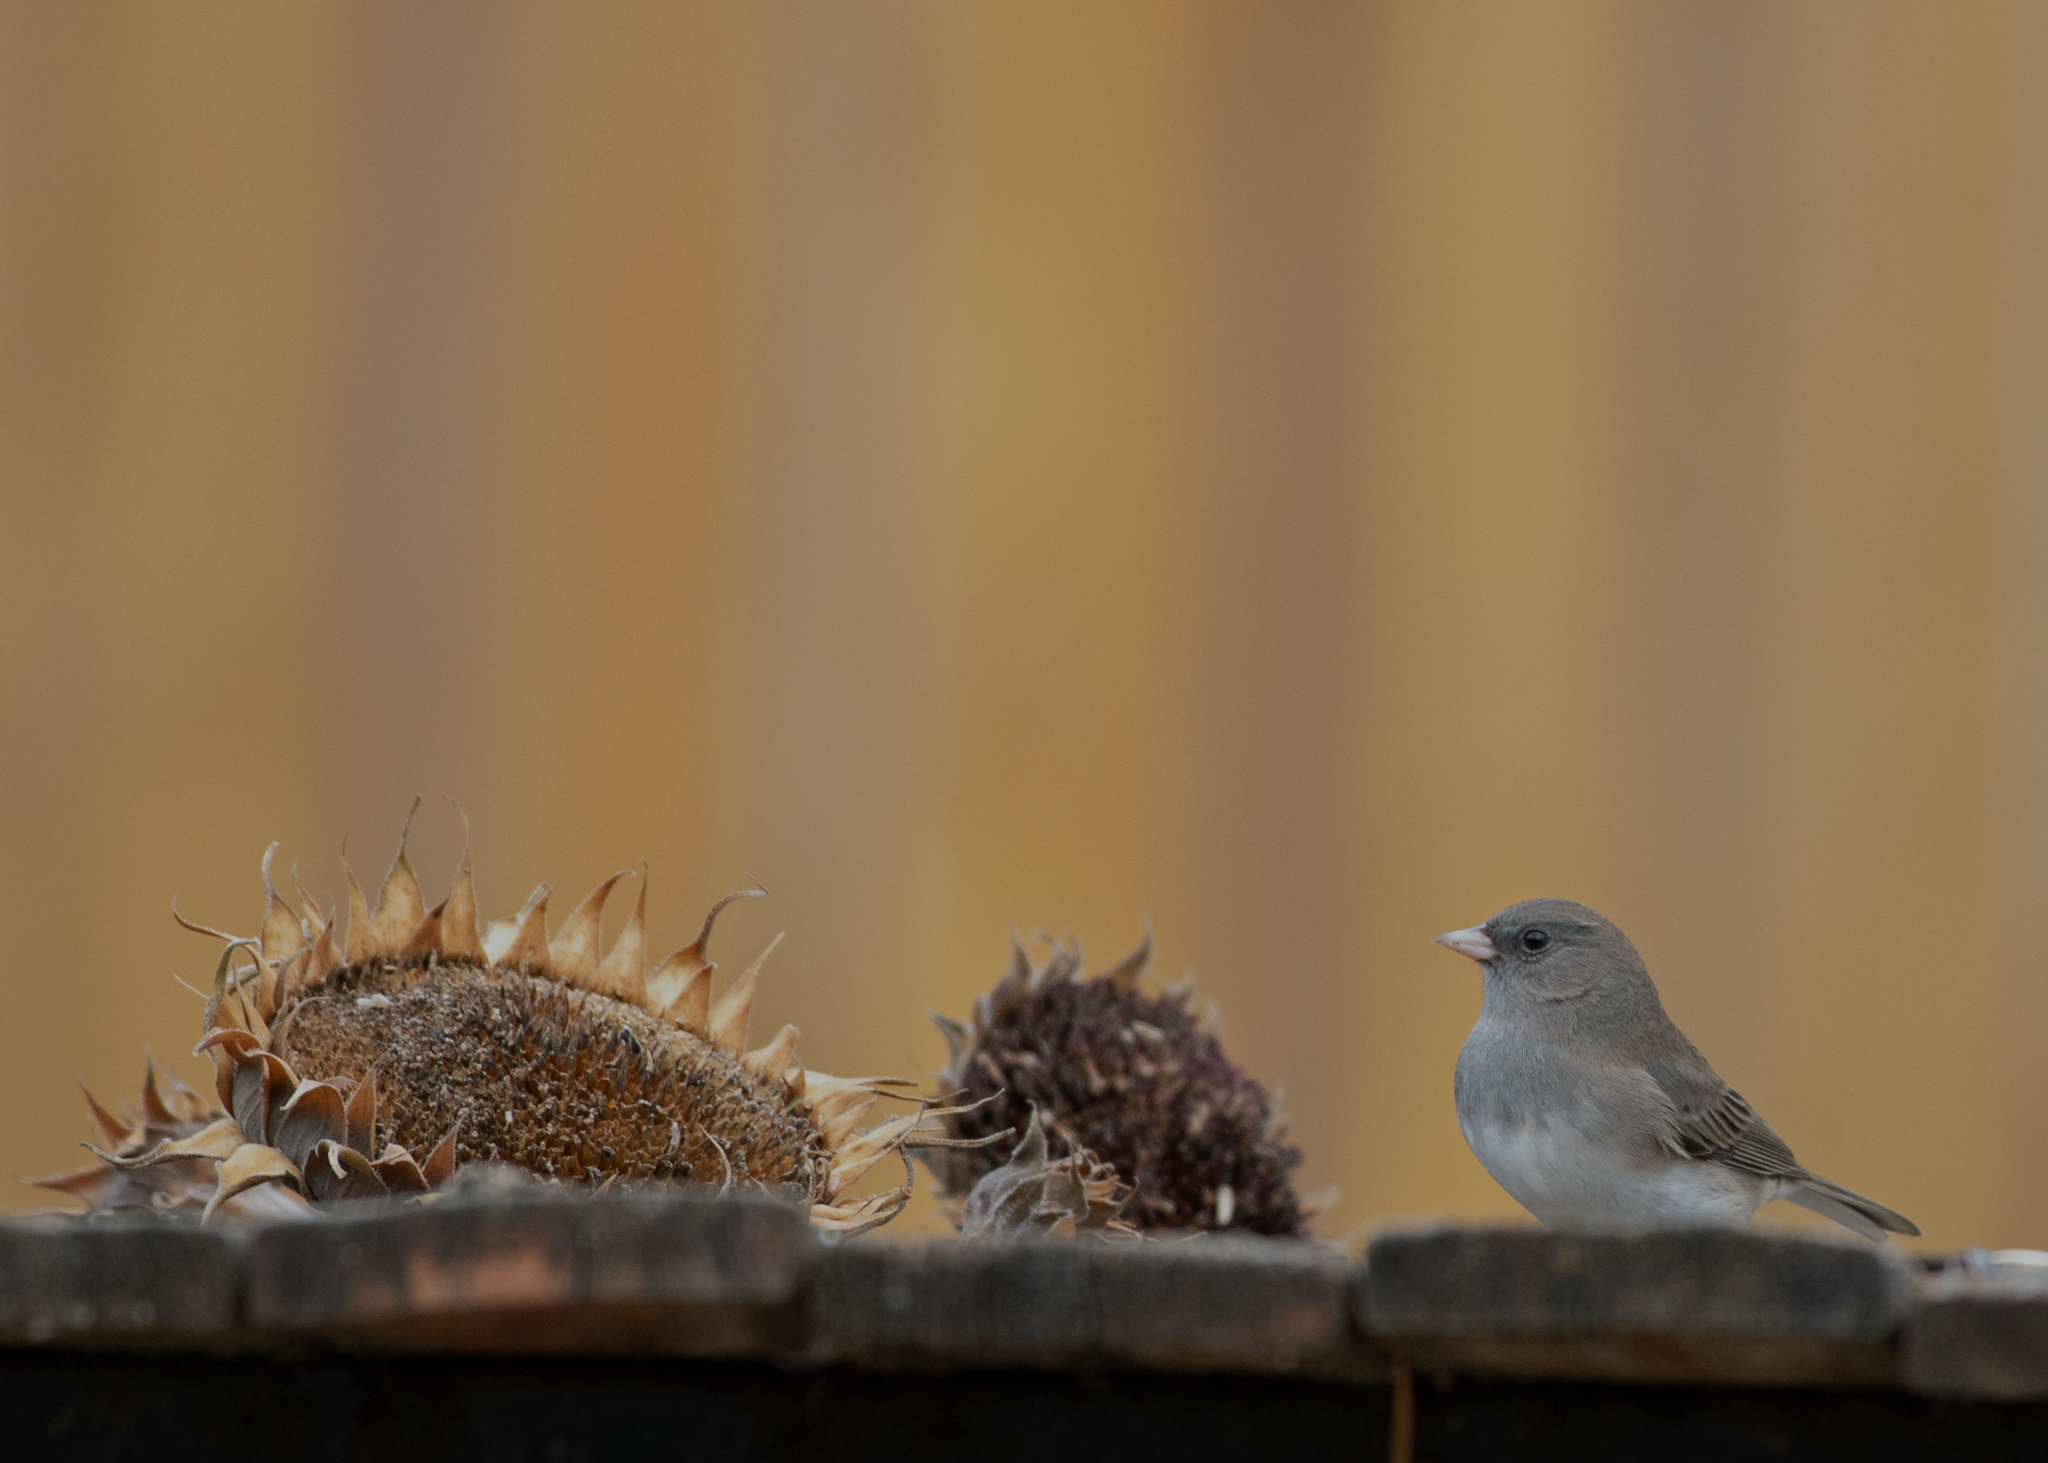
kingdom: Animalia
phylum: Chordata
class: Aves
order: Passeriformes
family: Passerellidae
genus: Junco
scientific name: Junco hyemalis
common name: Dark-eyed junco
